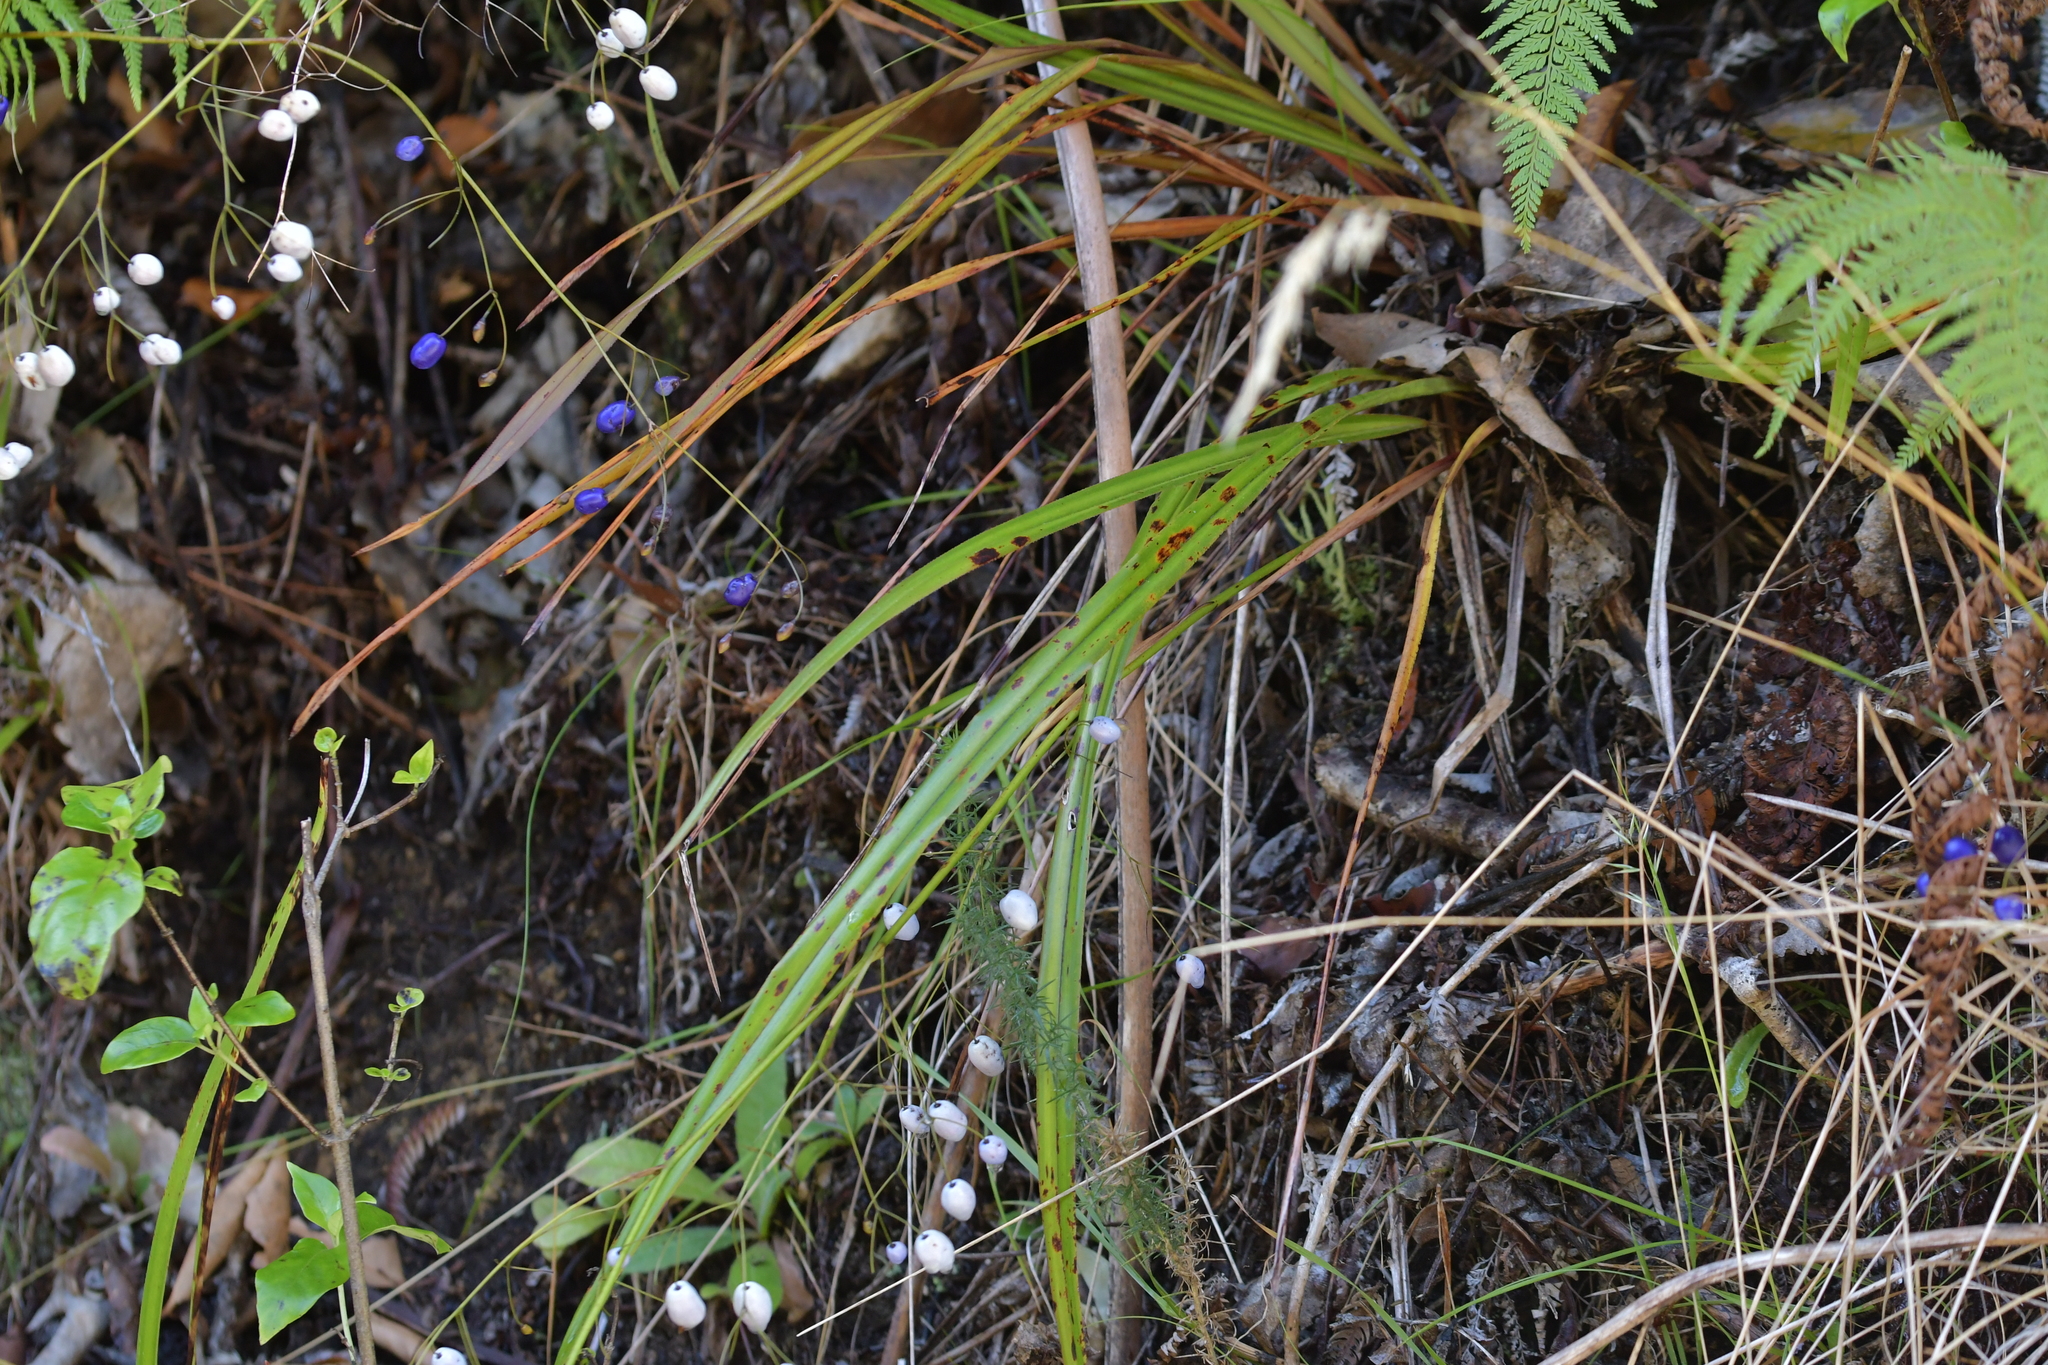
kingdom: Plantae
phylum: Tracheophyta
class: Liliopsida
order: Asparagales
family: Asphodelaceae
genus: Dianella
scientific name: Dianella nigra
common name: New zealand-blueberry
